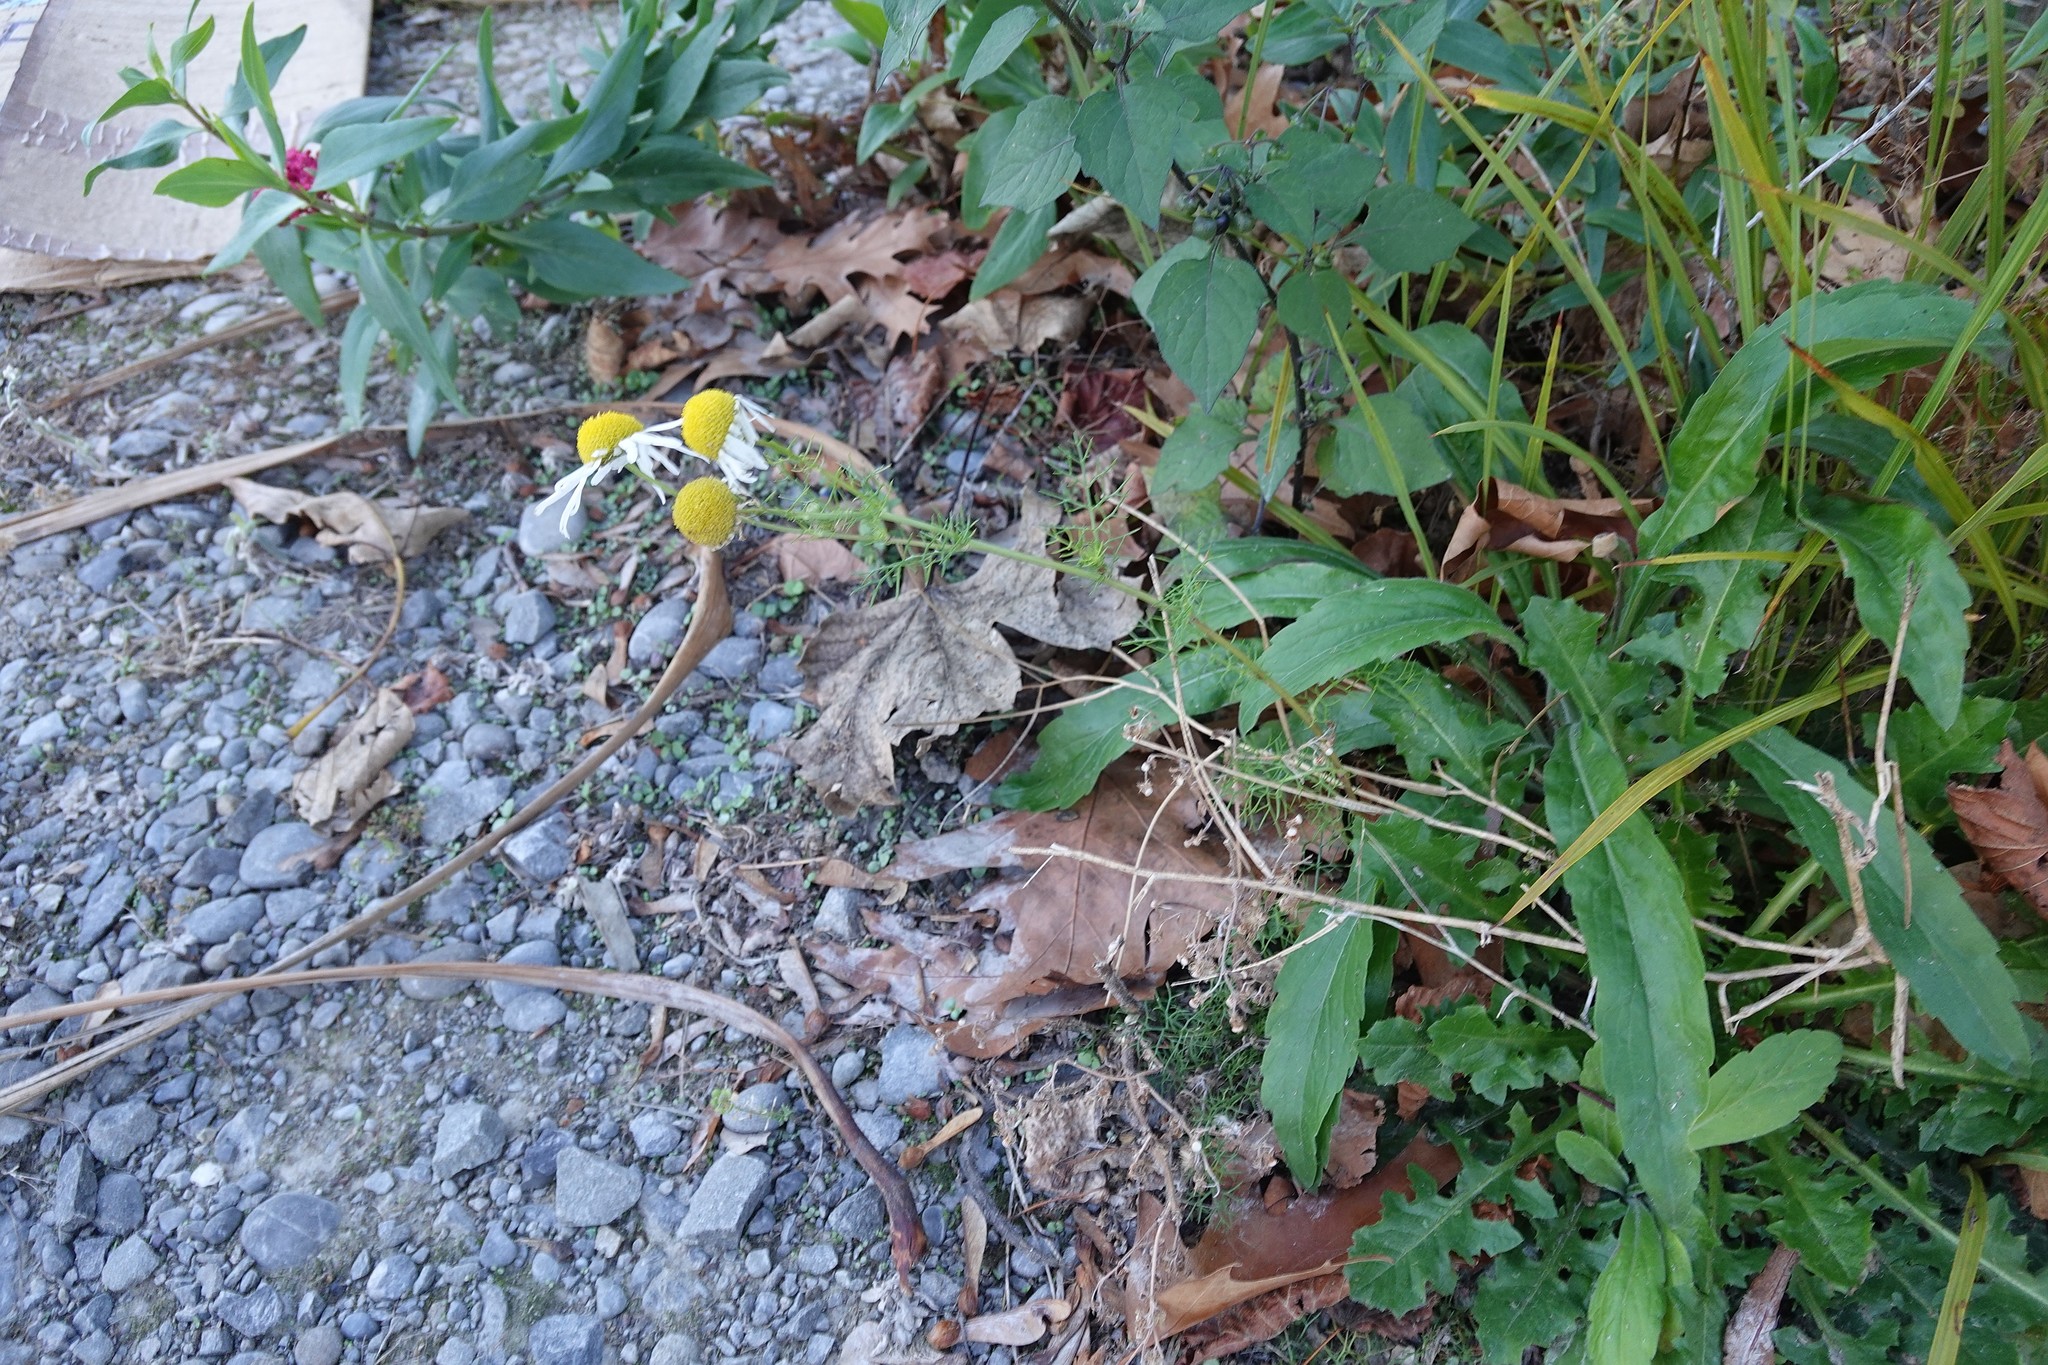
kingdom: Plantae
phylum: Tracheophyta
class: Magnoliopsida
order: Asterales
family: Asteraceae
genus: Tripleurospermum
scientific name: Tripleurospermum inodorum
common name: Scentless mayweed
